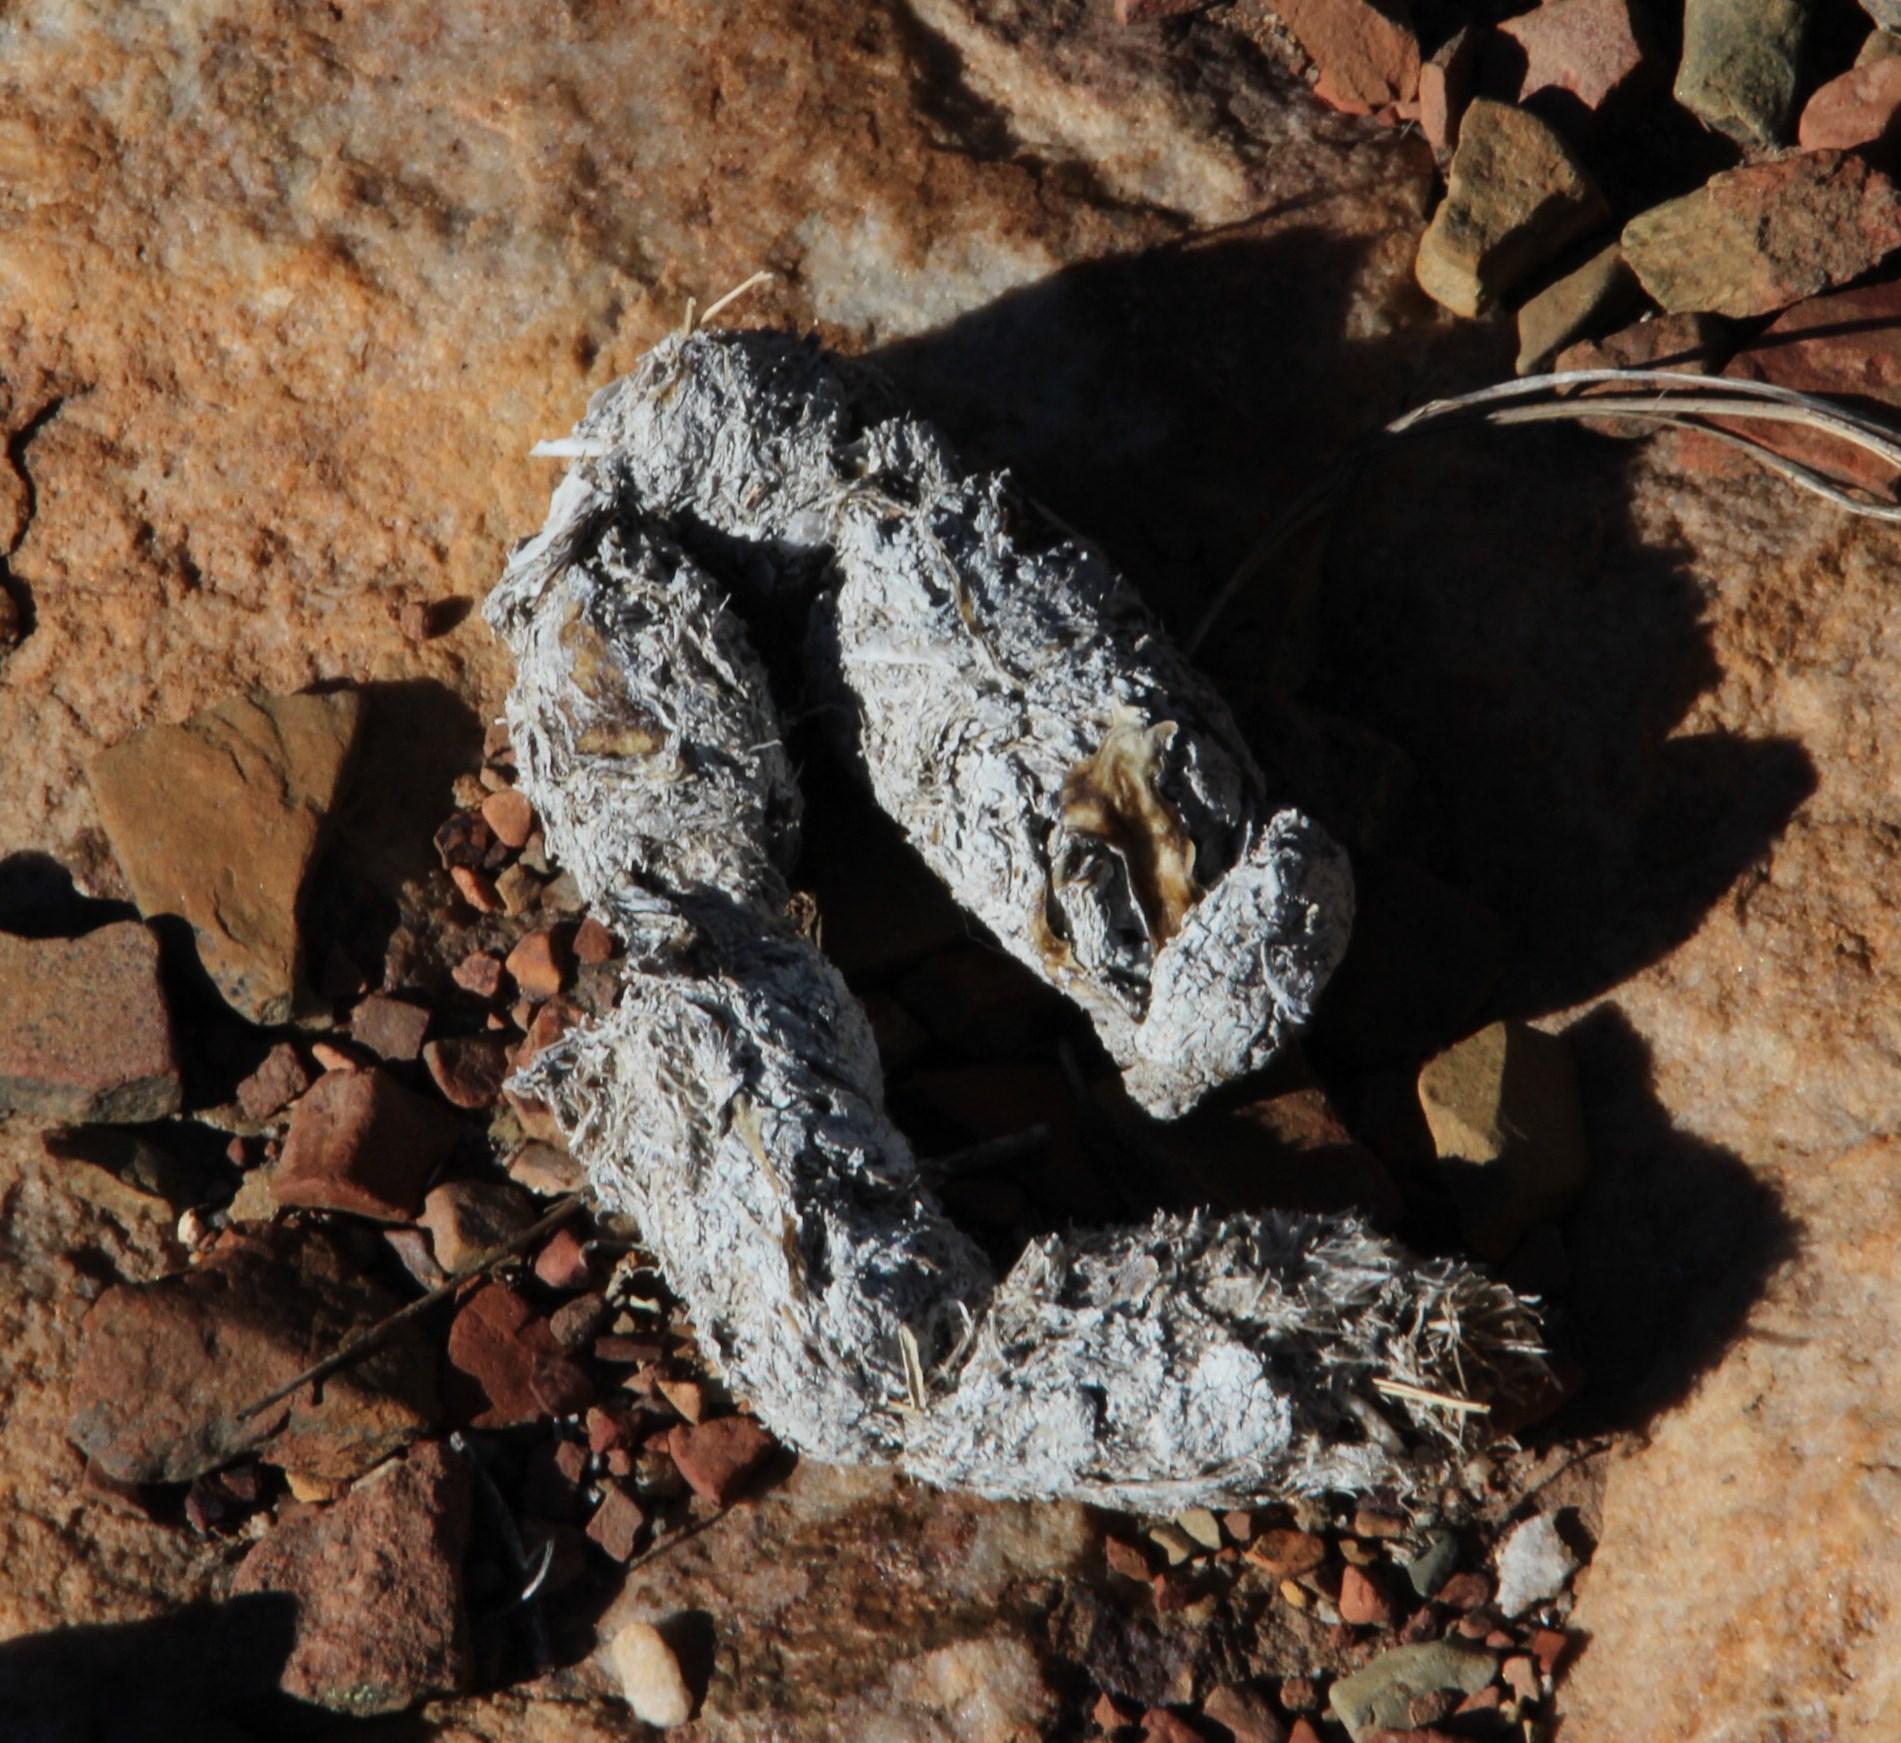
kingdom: Animalia
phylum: Chordata
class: Mammalia
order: Carnivora
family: Felidae
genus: Panthera
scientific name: Panthera pardus
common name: Leopard
